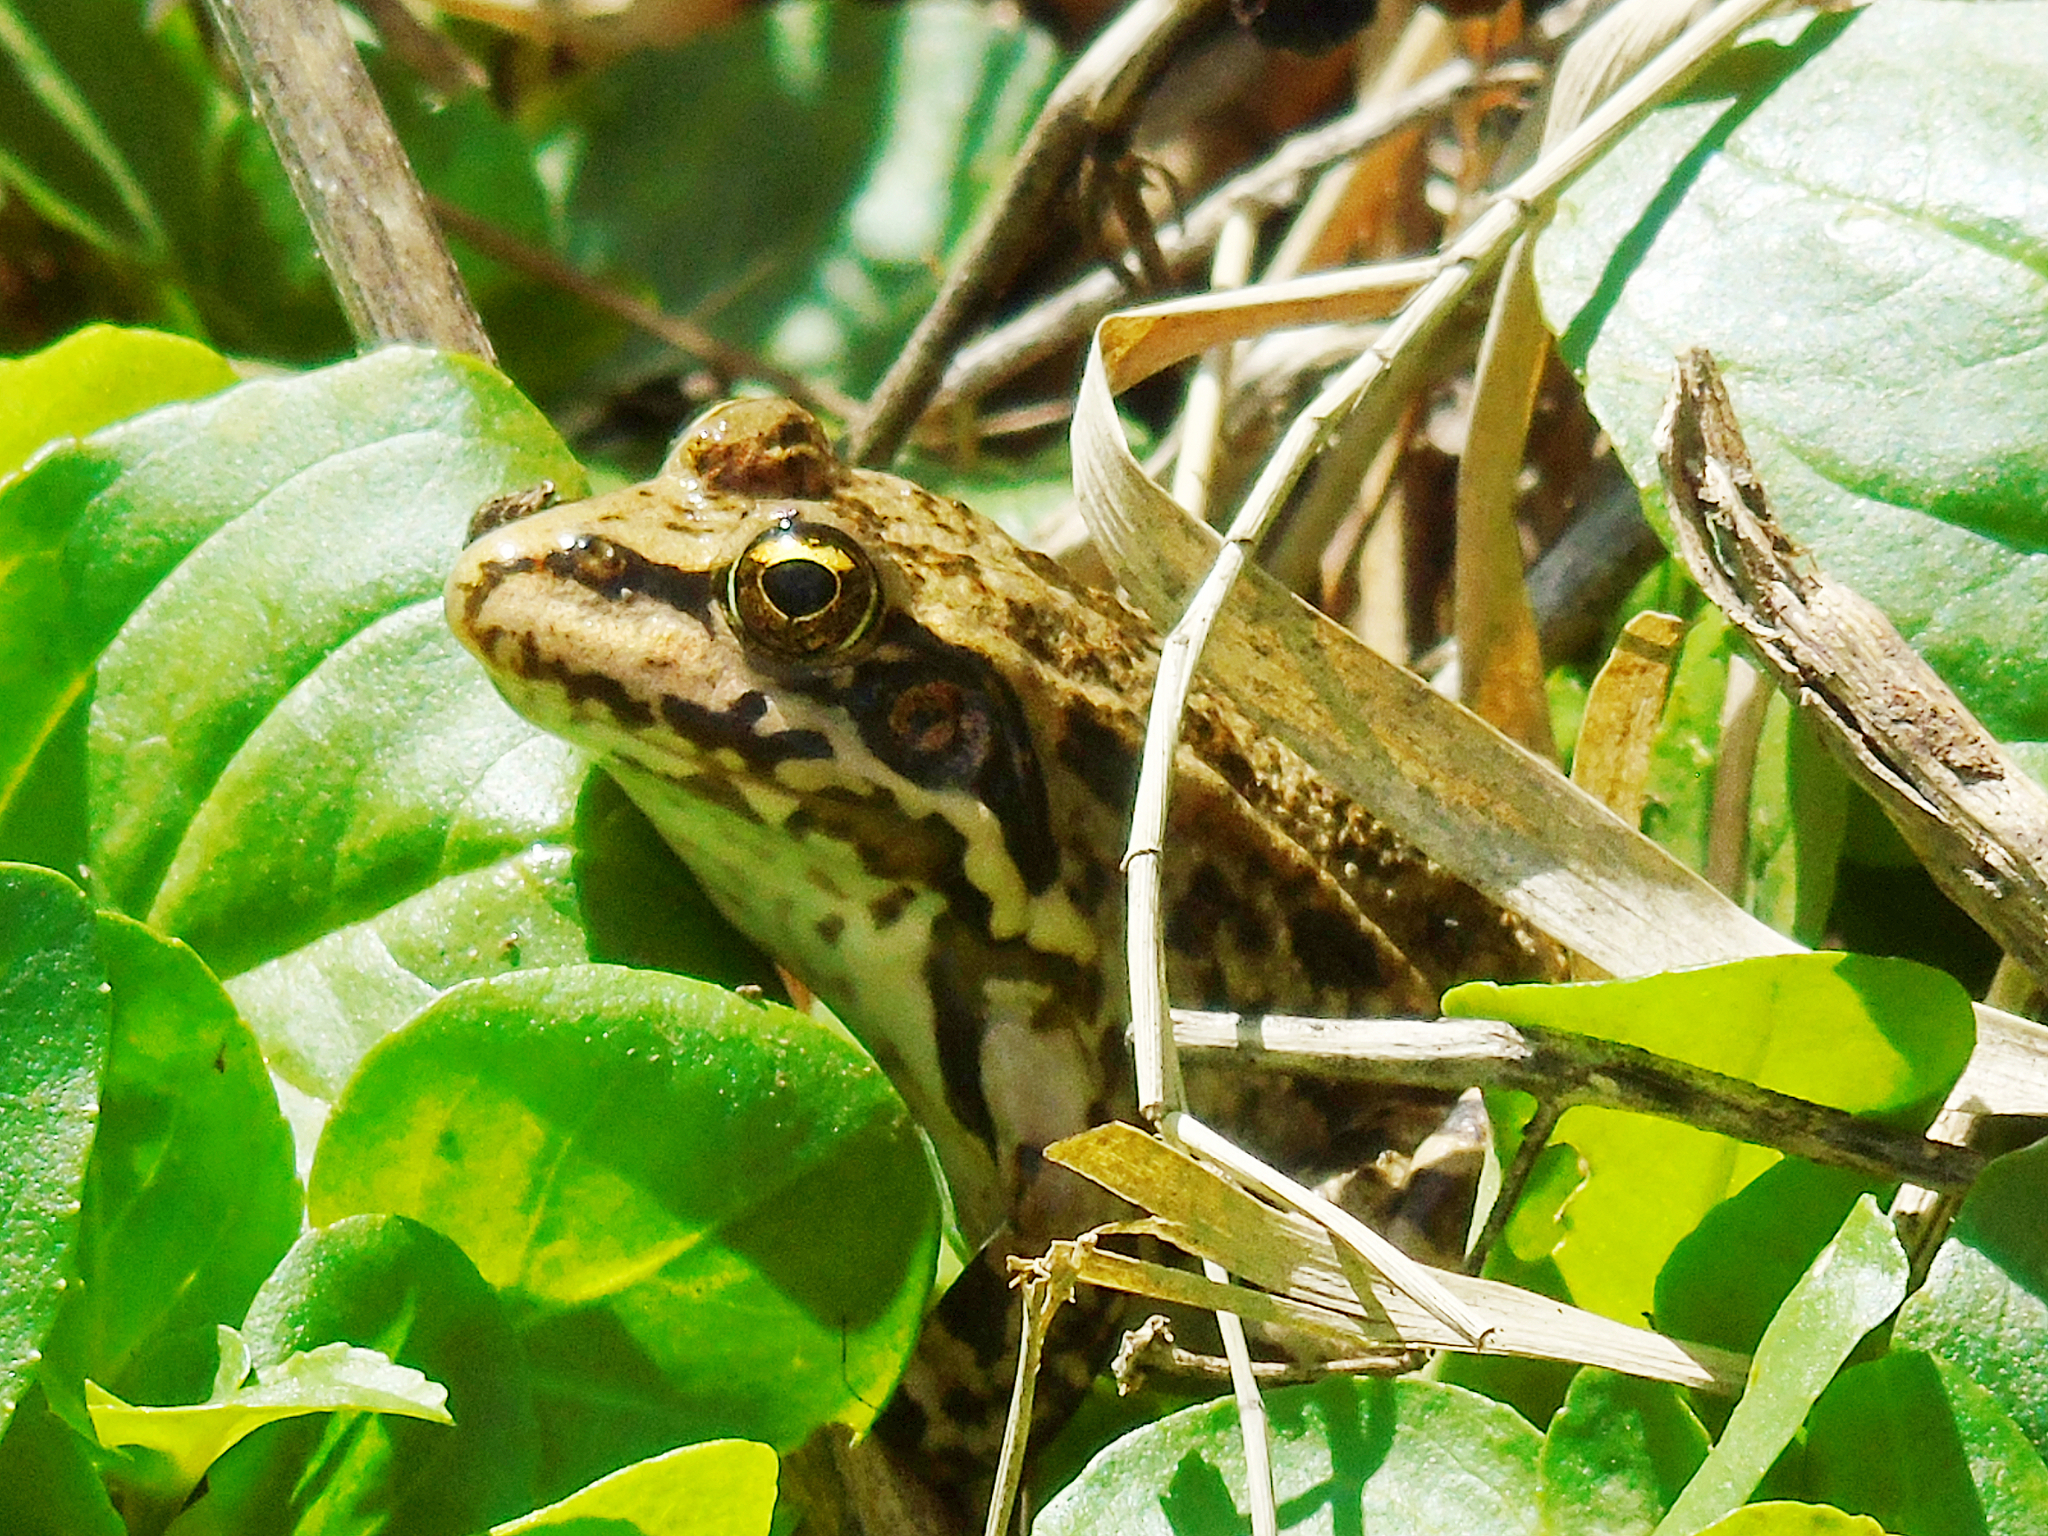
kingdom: Animalia
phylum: Chordata
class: Amphibia
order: Anura
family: Ranidae
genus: Pelophylax
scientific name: Pelophylax ridibundus
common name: Marsh frog
